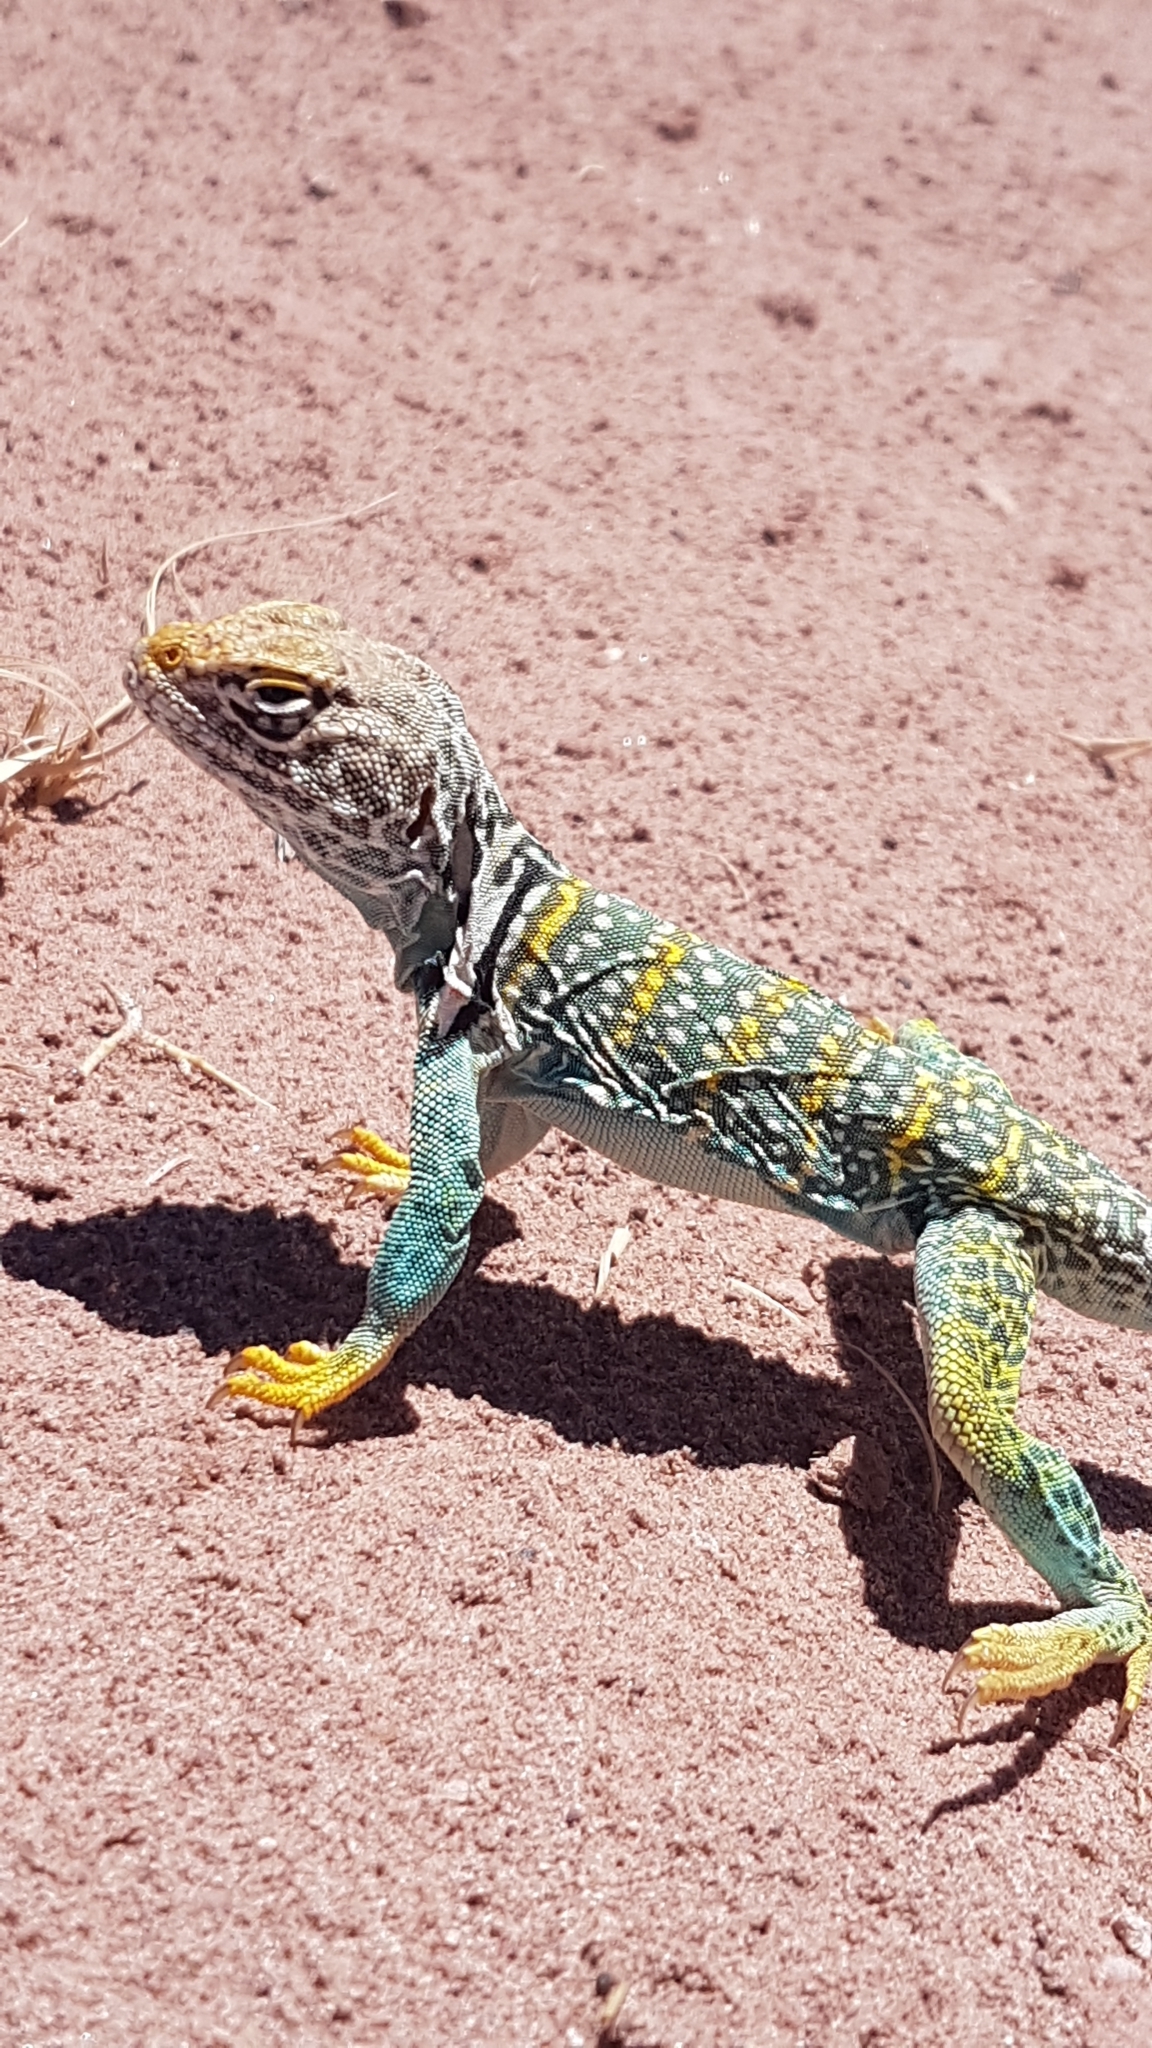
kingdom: Animalia
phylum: Chordata
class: Squamata
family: Crotaphytidae
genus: Crotaphytus
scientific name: Crotaphytus collaris
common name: Collared lizard
